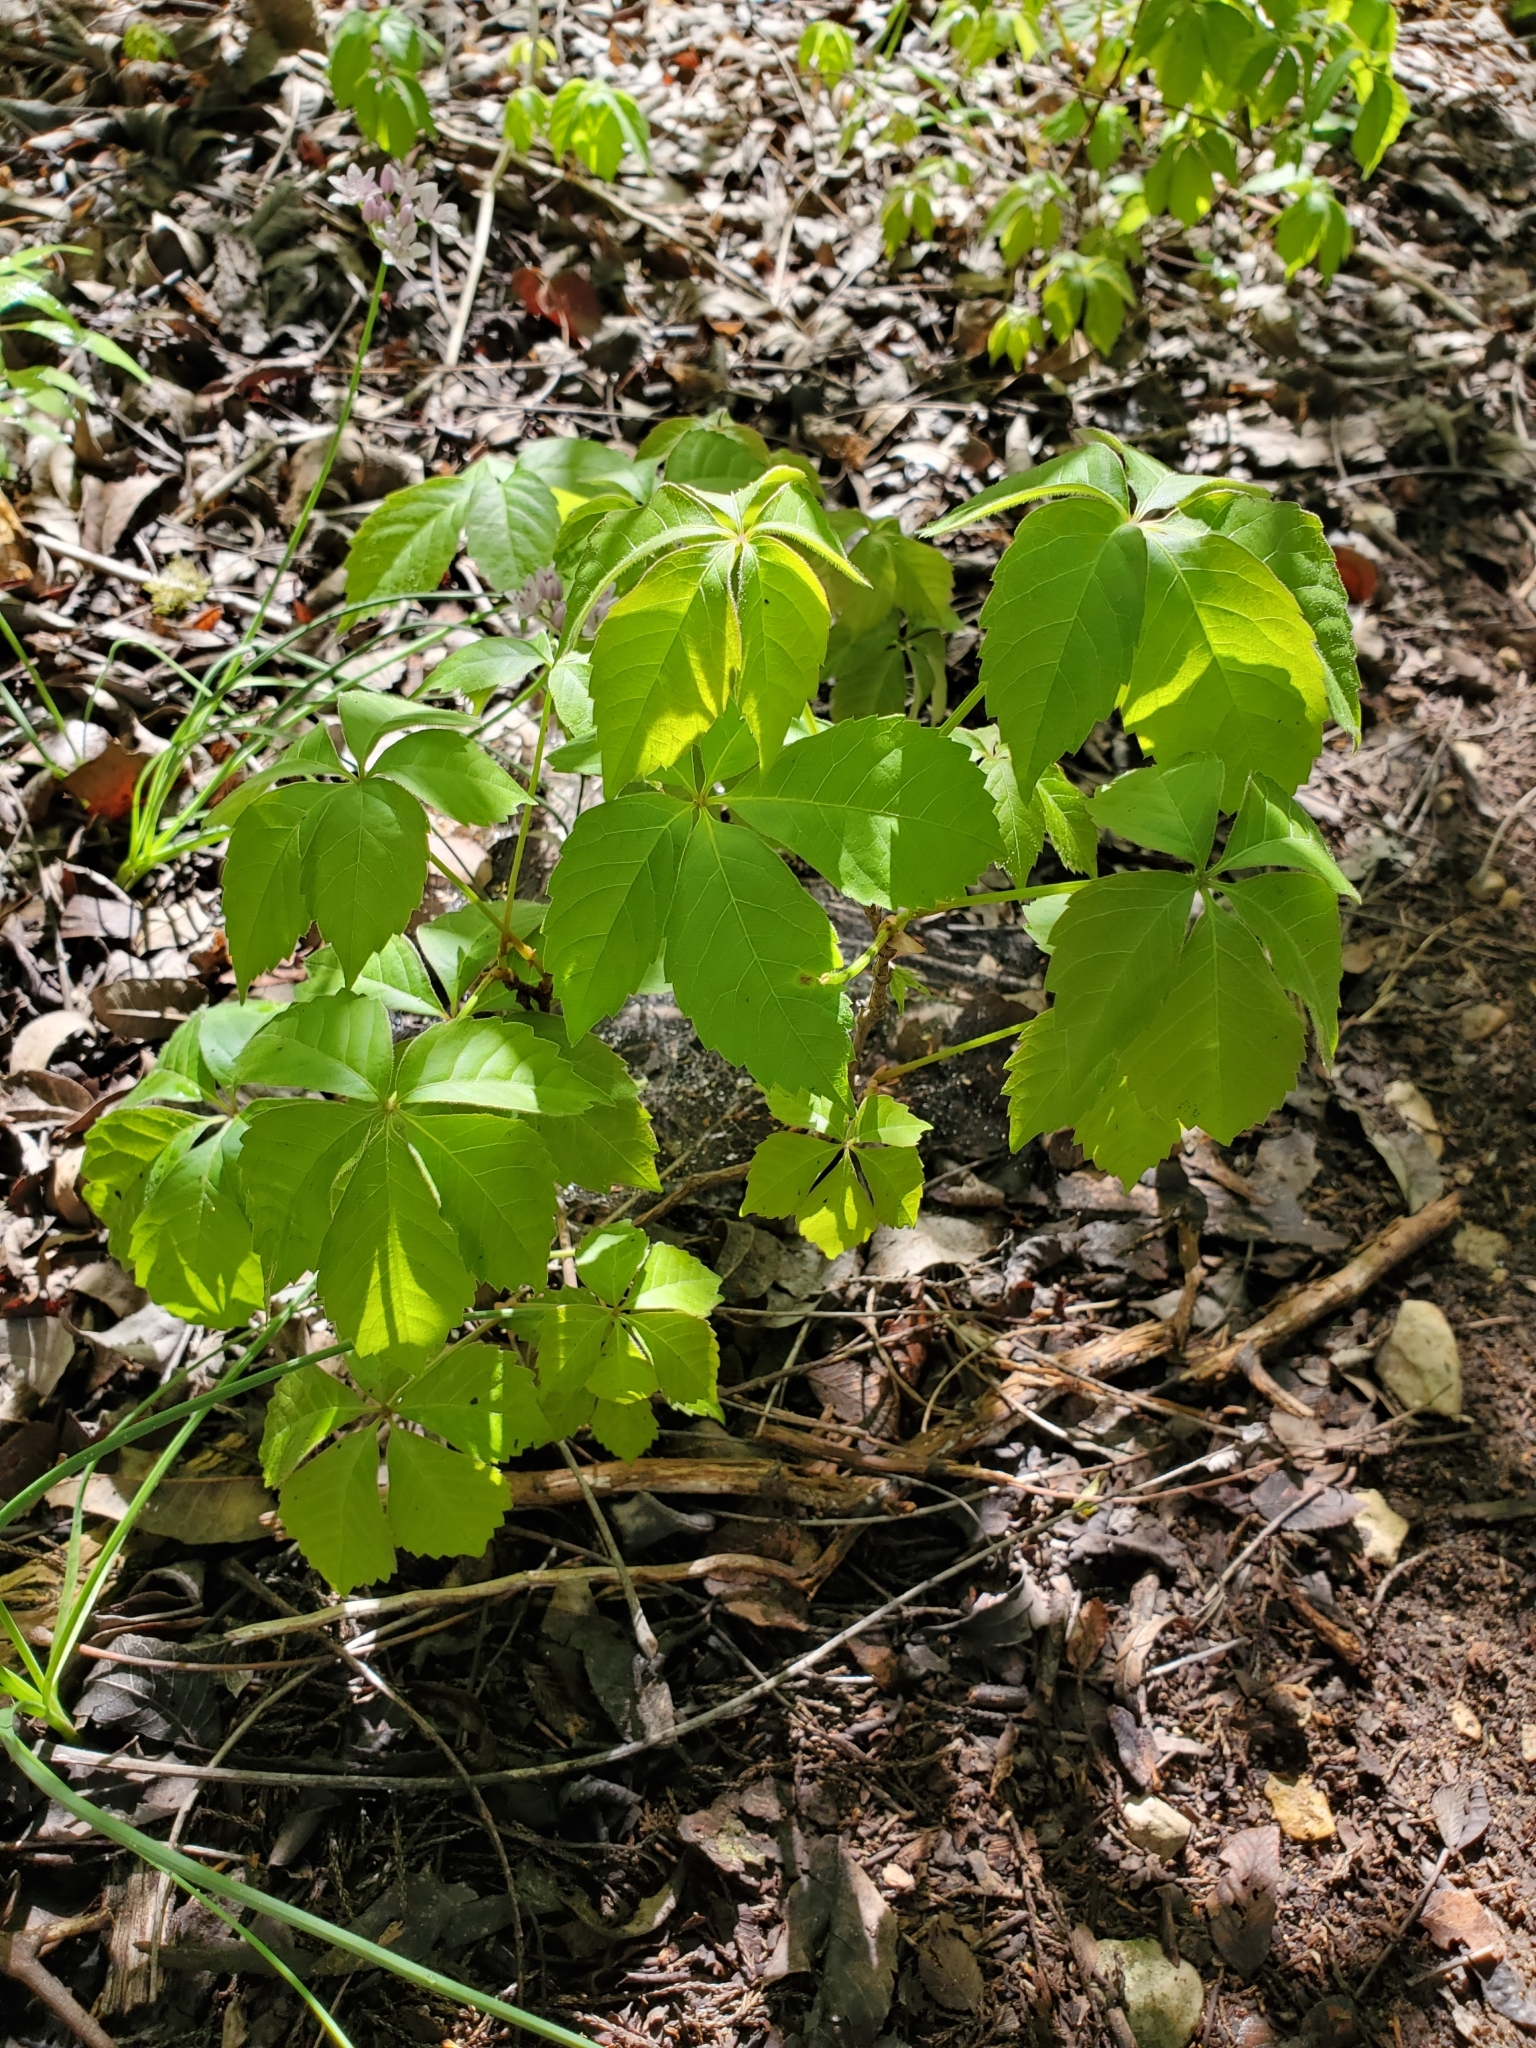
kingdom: Plantae
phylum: Tracheophyta
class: Magnoliopsida
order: Vitales
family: Vitaceae
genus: Parthenocissus
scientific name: Parthenocissus quinquefolia
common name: Virginia-creeper
